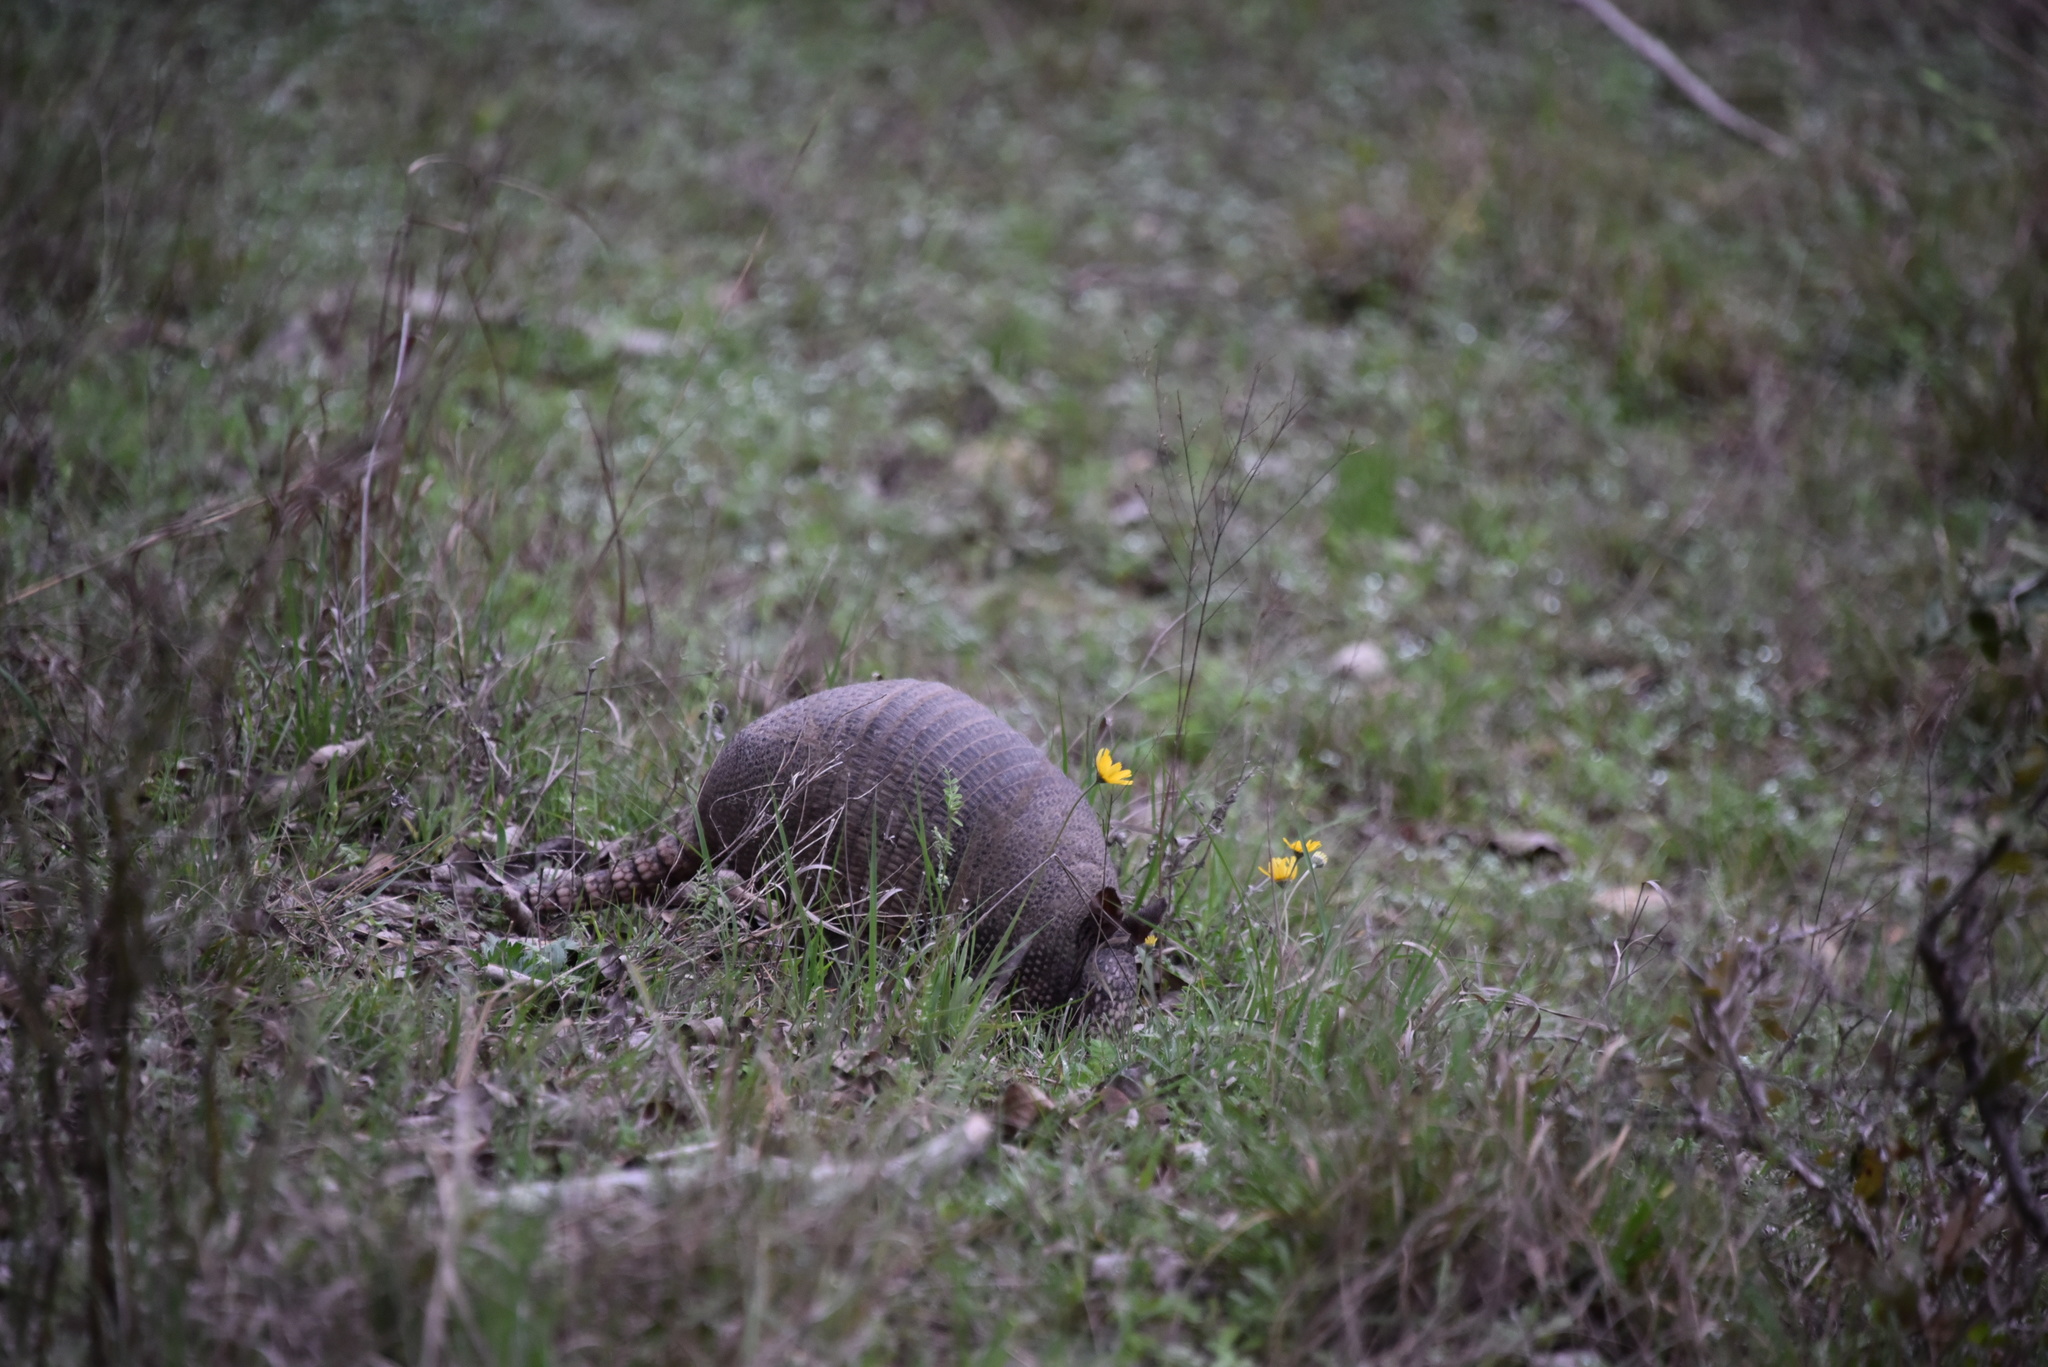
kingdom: Animalia
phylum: Chordata
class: Mammalia
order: Cingulata
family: Dasypodidae
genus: Dasypus
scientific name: Dasypus novemcinctus
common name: Nine-banded armadillo
